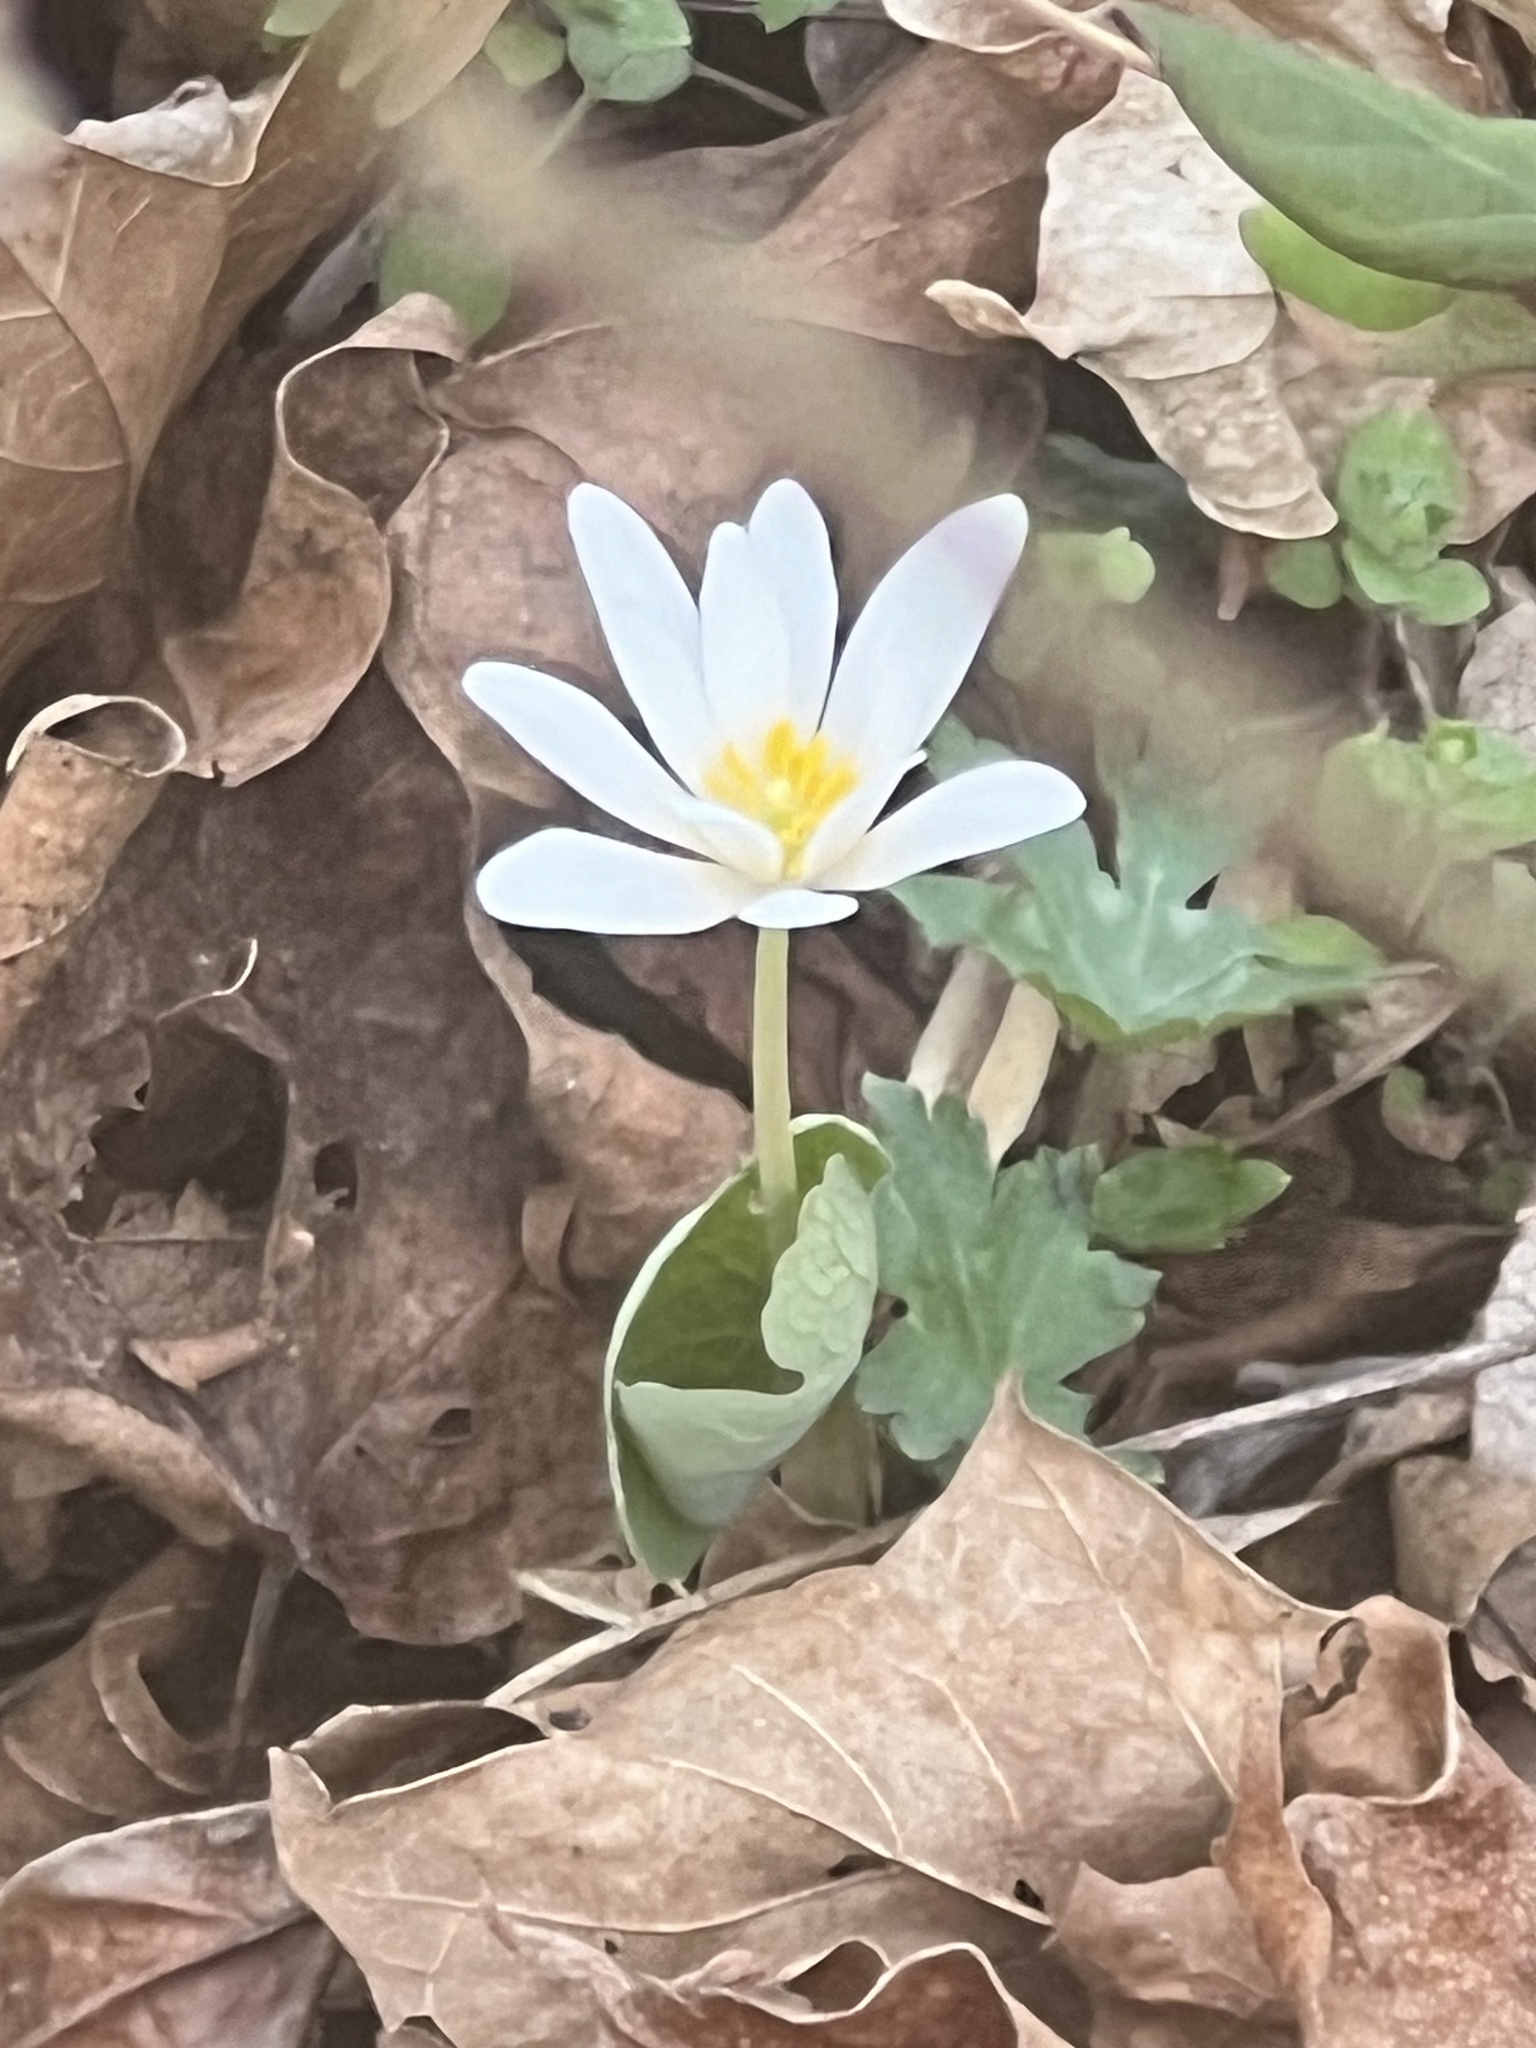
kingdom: Plantae
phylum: Tracheophyta
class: Magnoliopsida
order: Ranunculales
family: Papaveraceae
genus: Sanguinaria
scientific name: Sanguinaria canadensis
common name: Bloodroot
